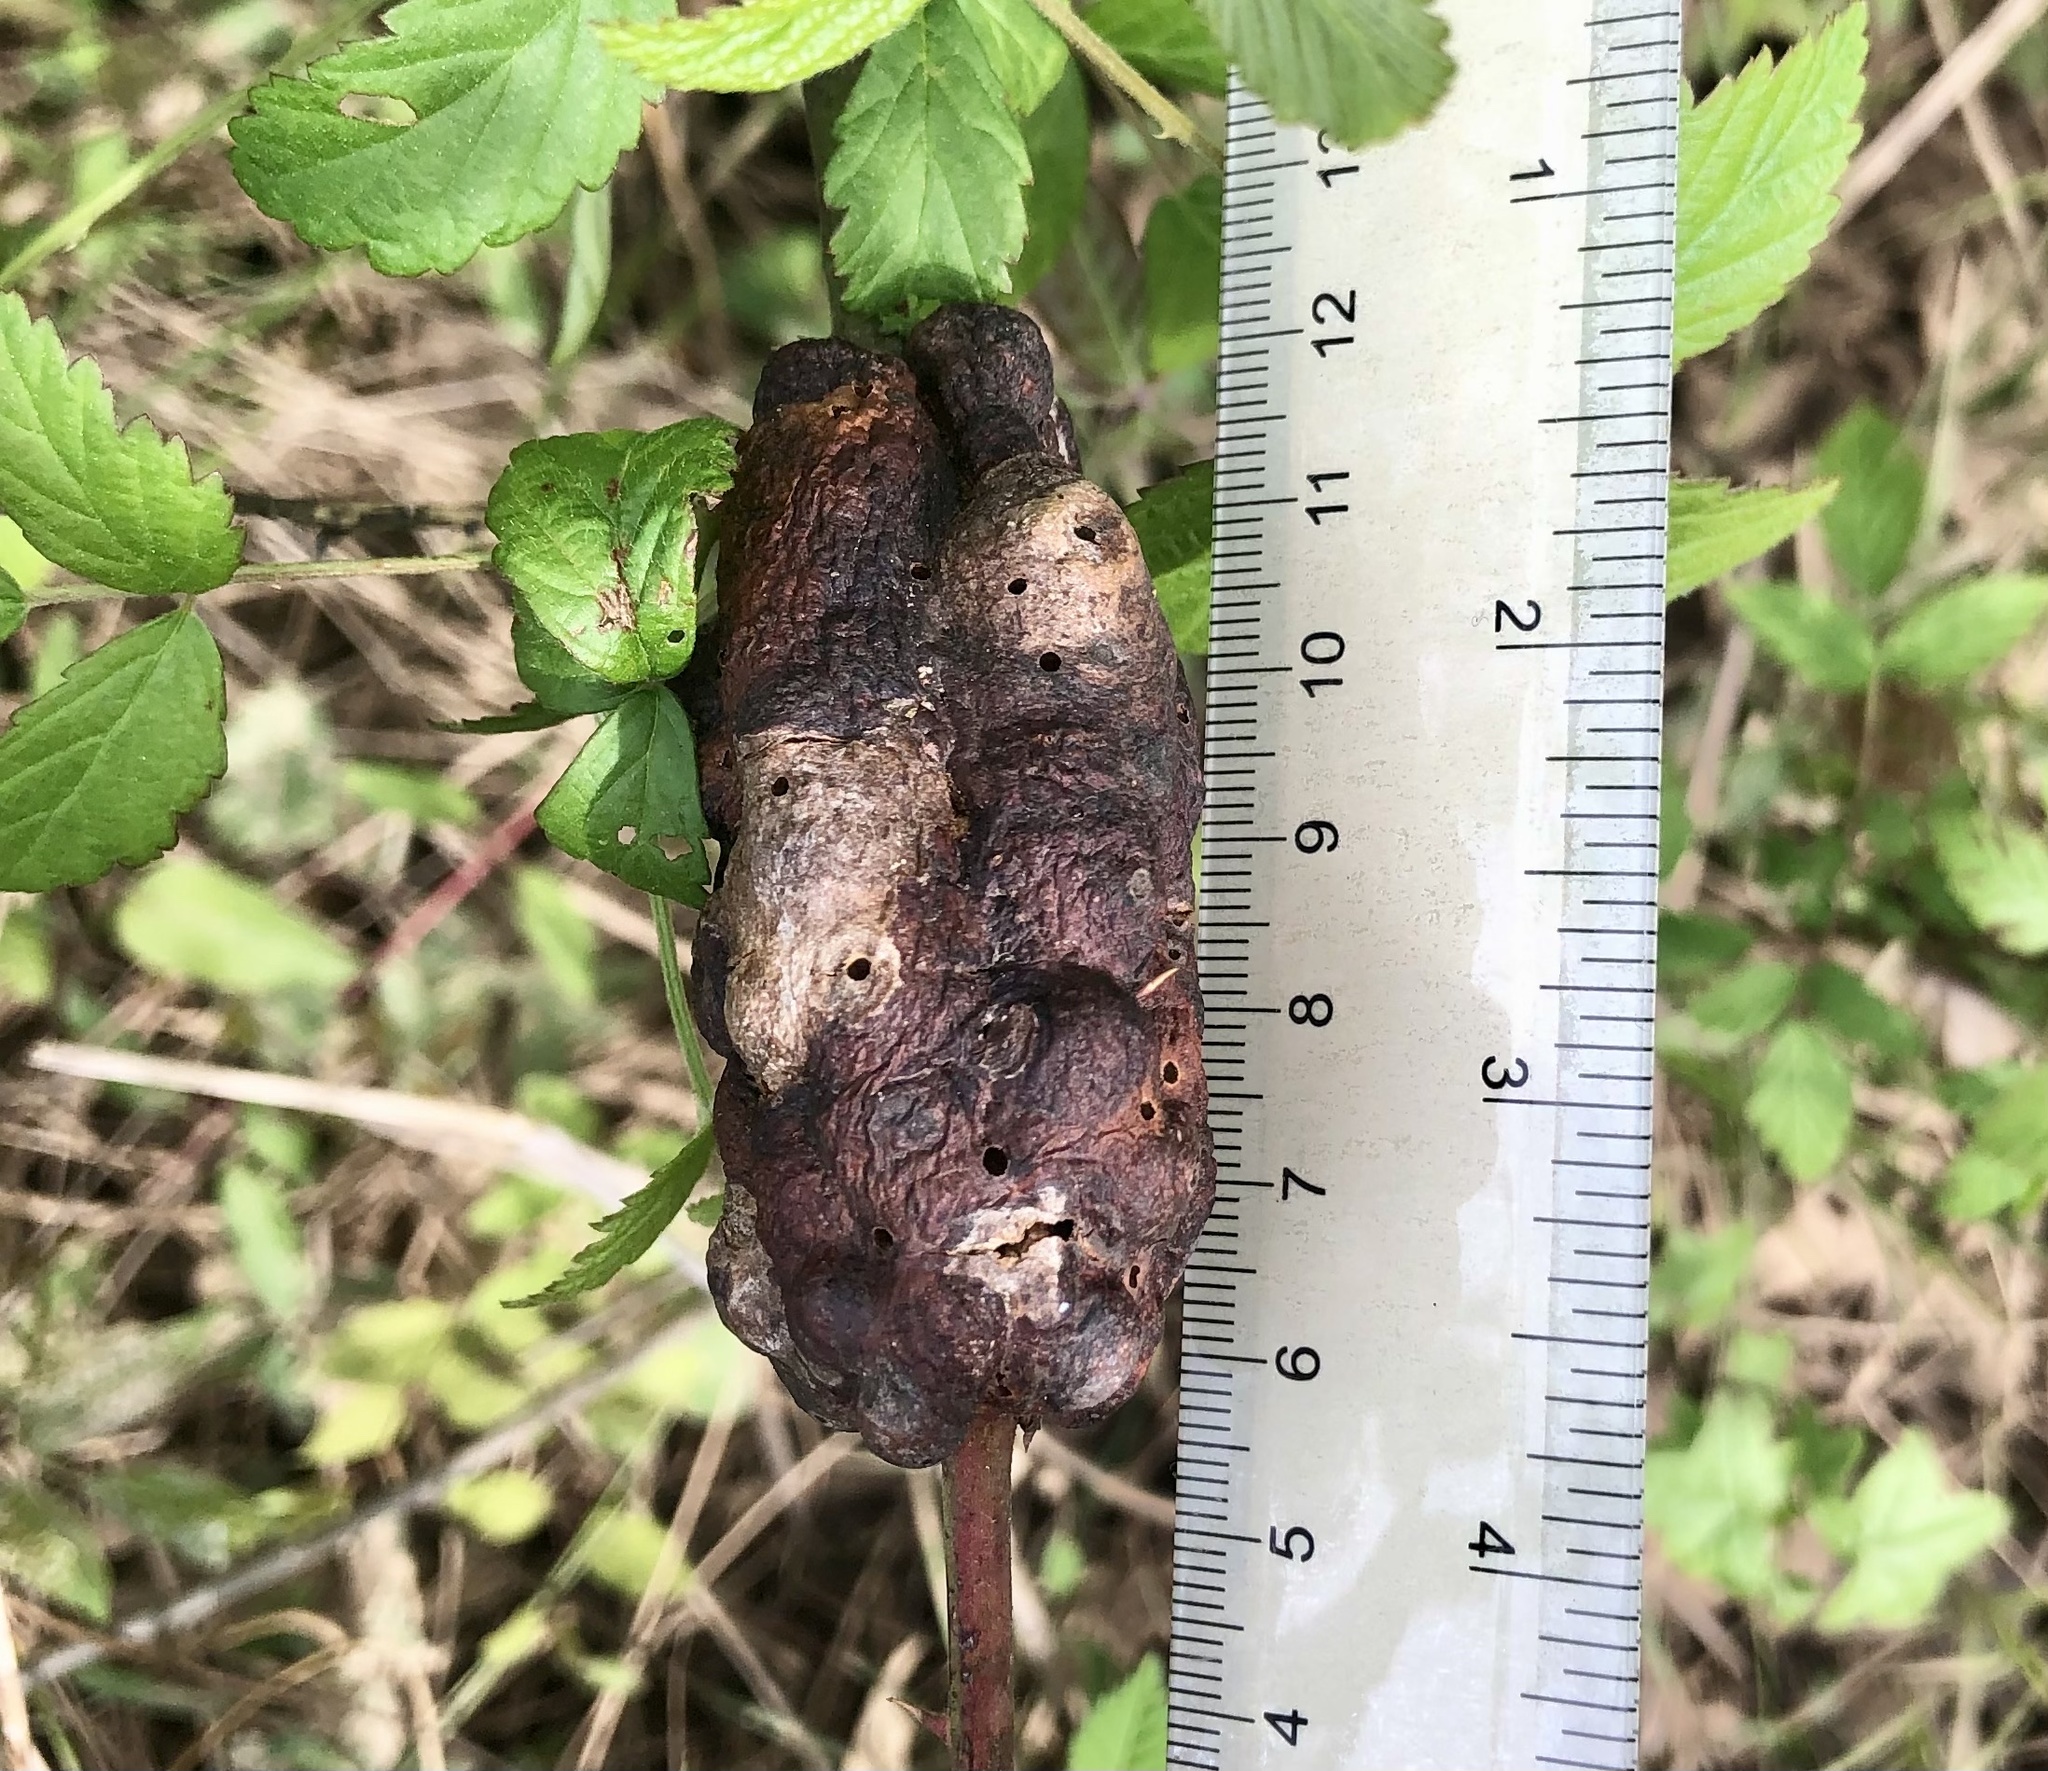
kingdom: Animalia
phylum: Arthropoda
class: Insecta
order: Hymenoptera
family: Cynipidae
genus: Diastrophus
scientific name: Diastrophus
